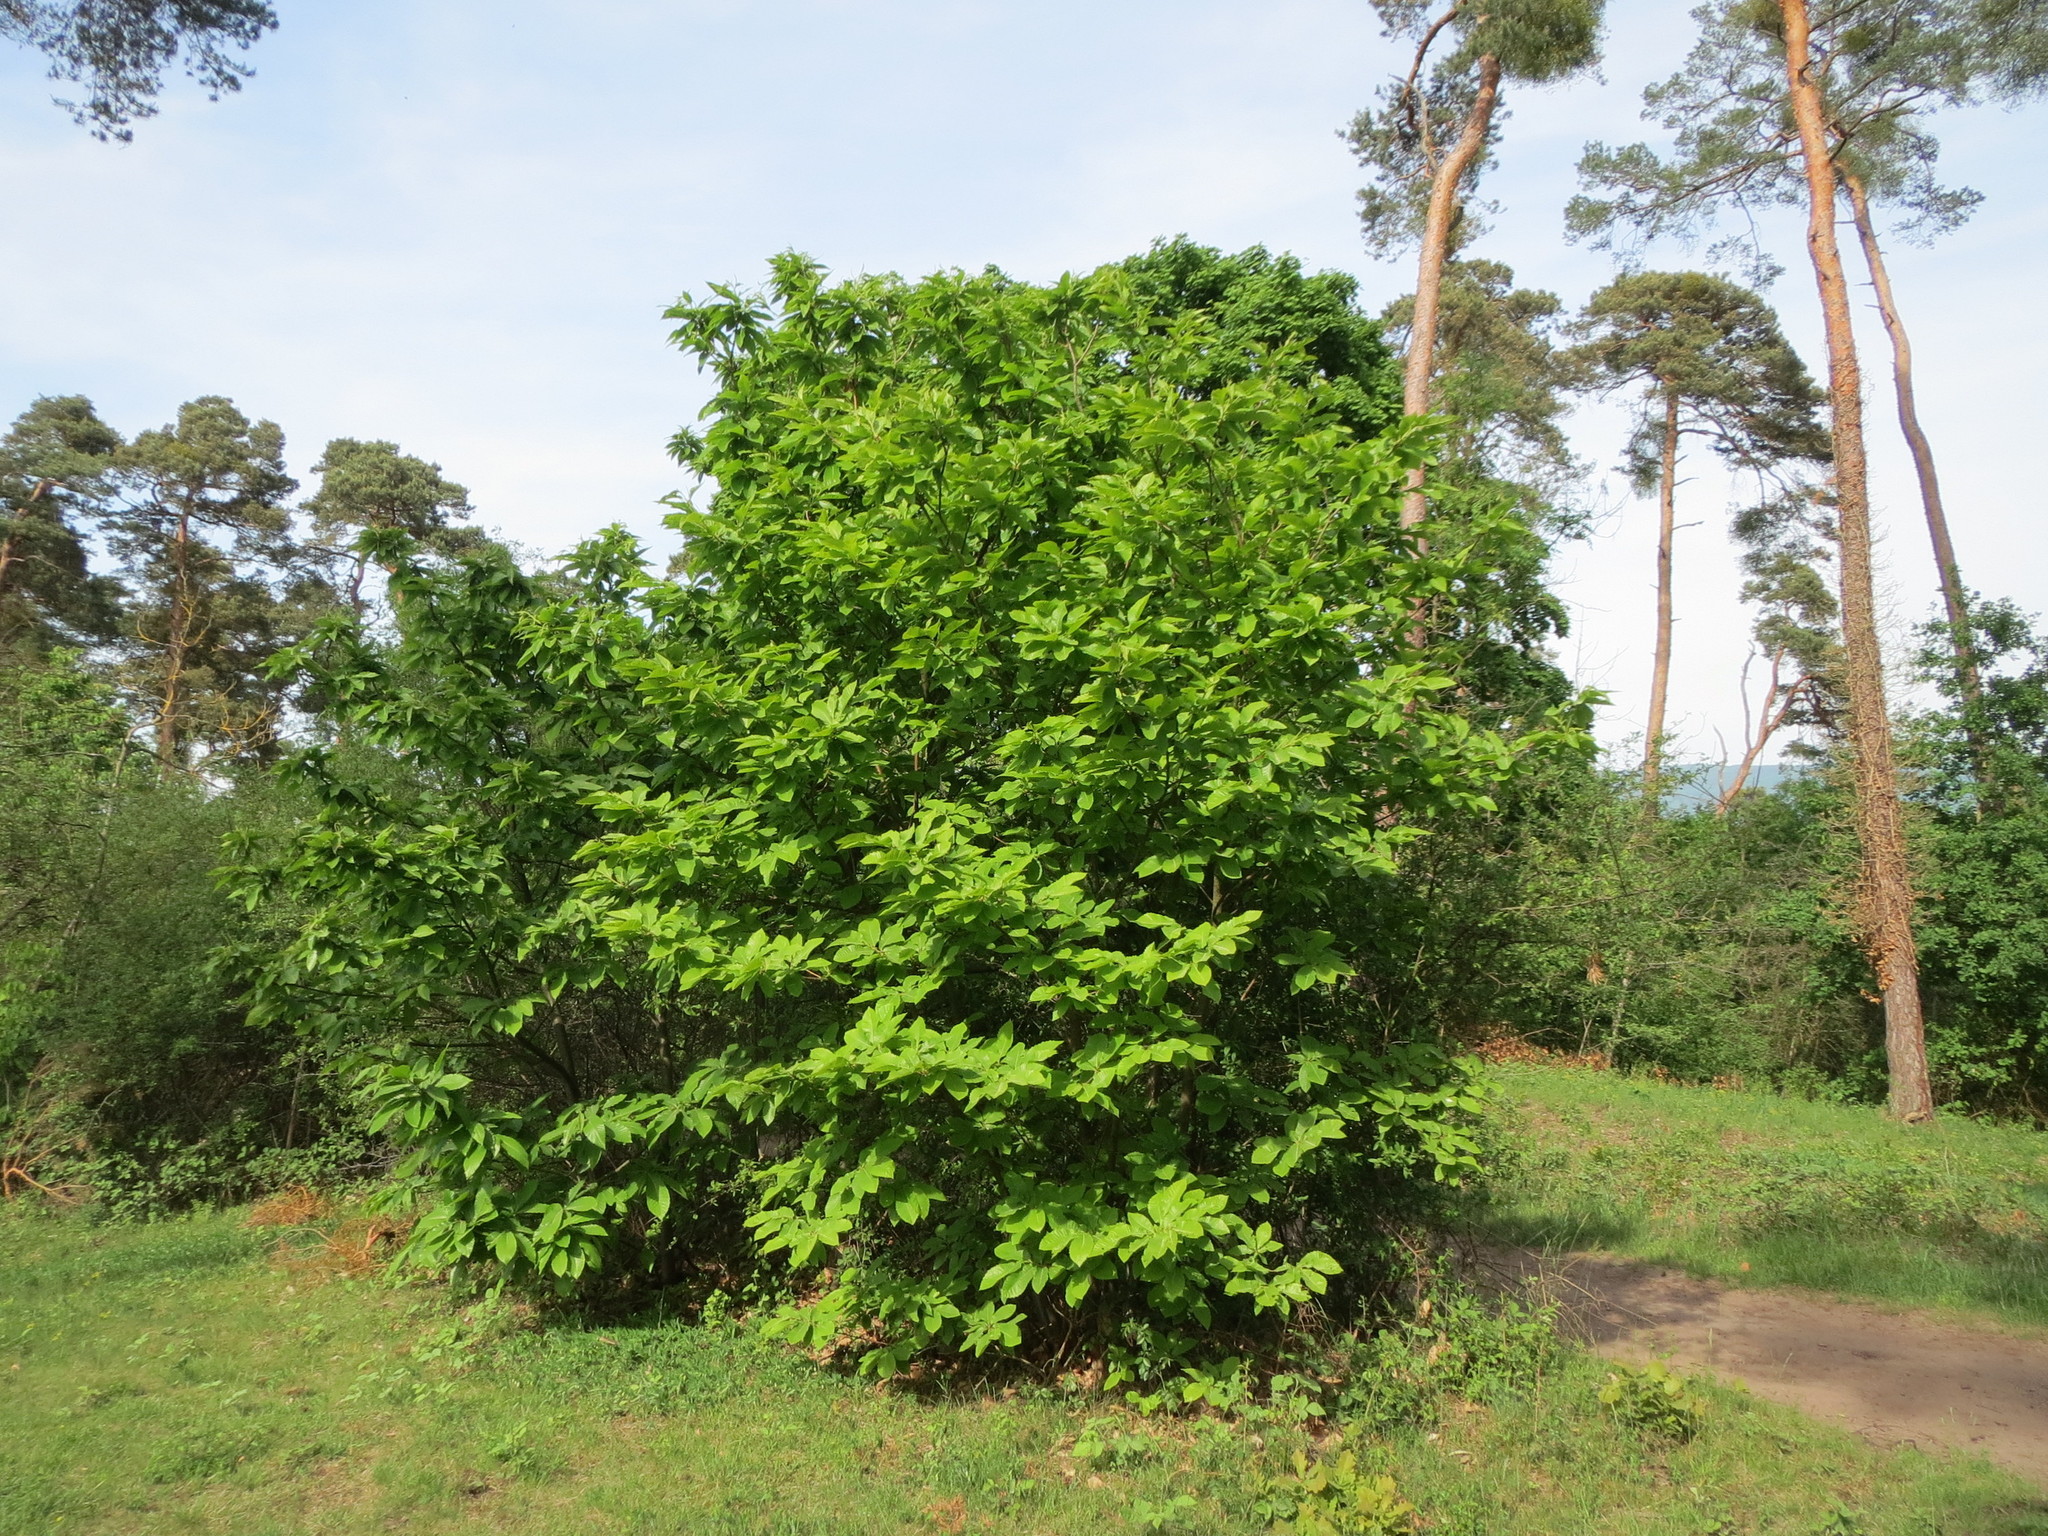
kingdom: Plantae
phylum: Tracheophyta
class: Magnoliopsida
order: Fagales
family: Fagaceae
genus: Castanea
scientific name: Castanea sativa
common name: Sweet chestnut
